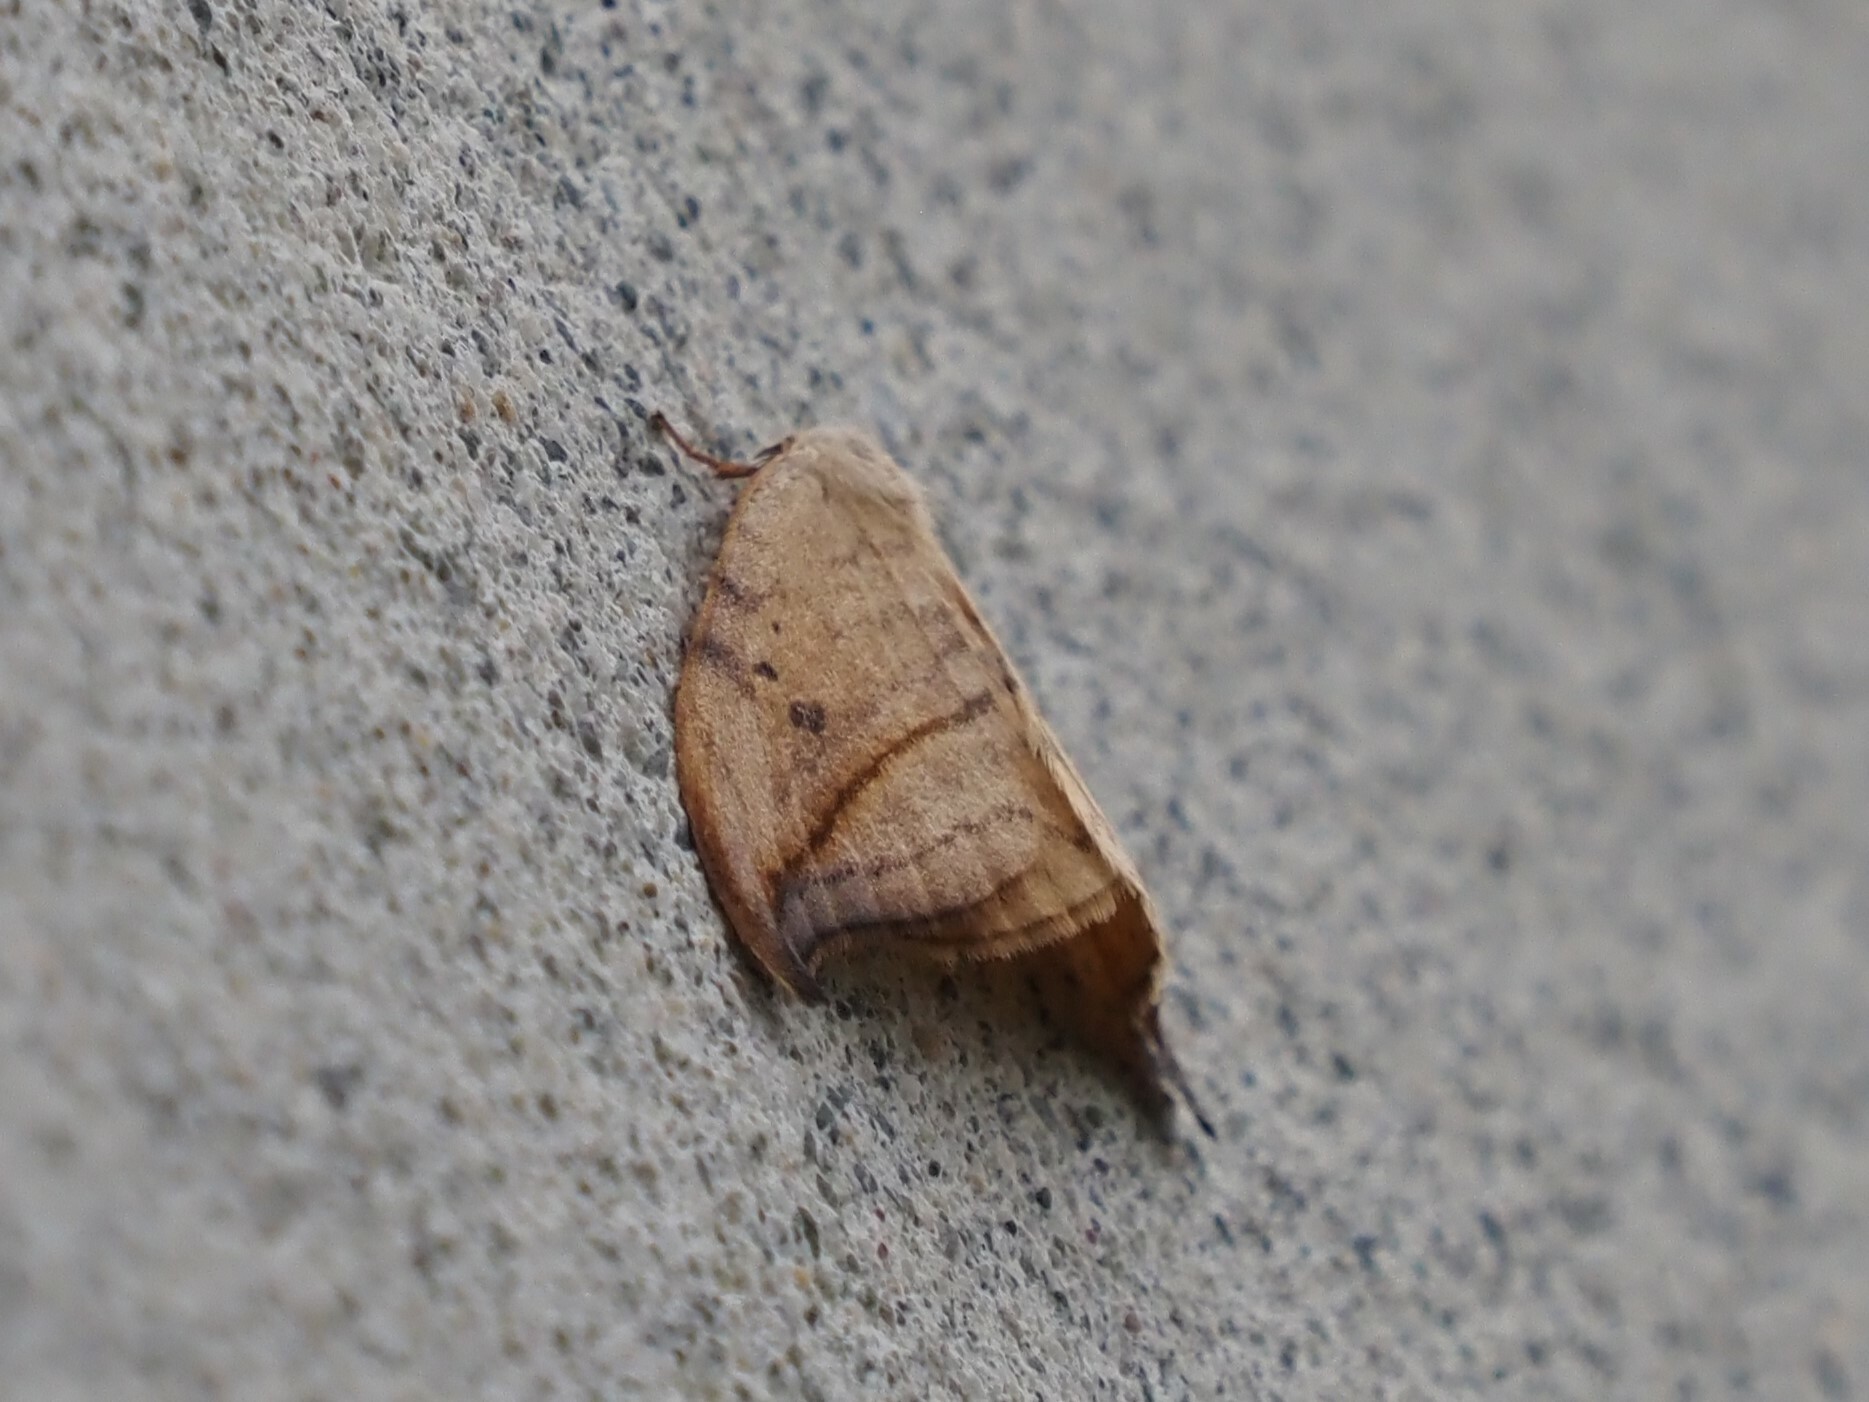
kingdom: Animalia
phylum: Arthropoda
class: Insecta
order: Lepidoptera
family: Drepanidae
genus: Drepana
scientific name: Drepana arcuata
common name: Arched hooktip moth
